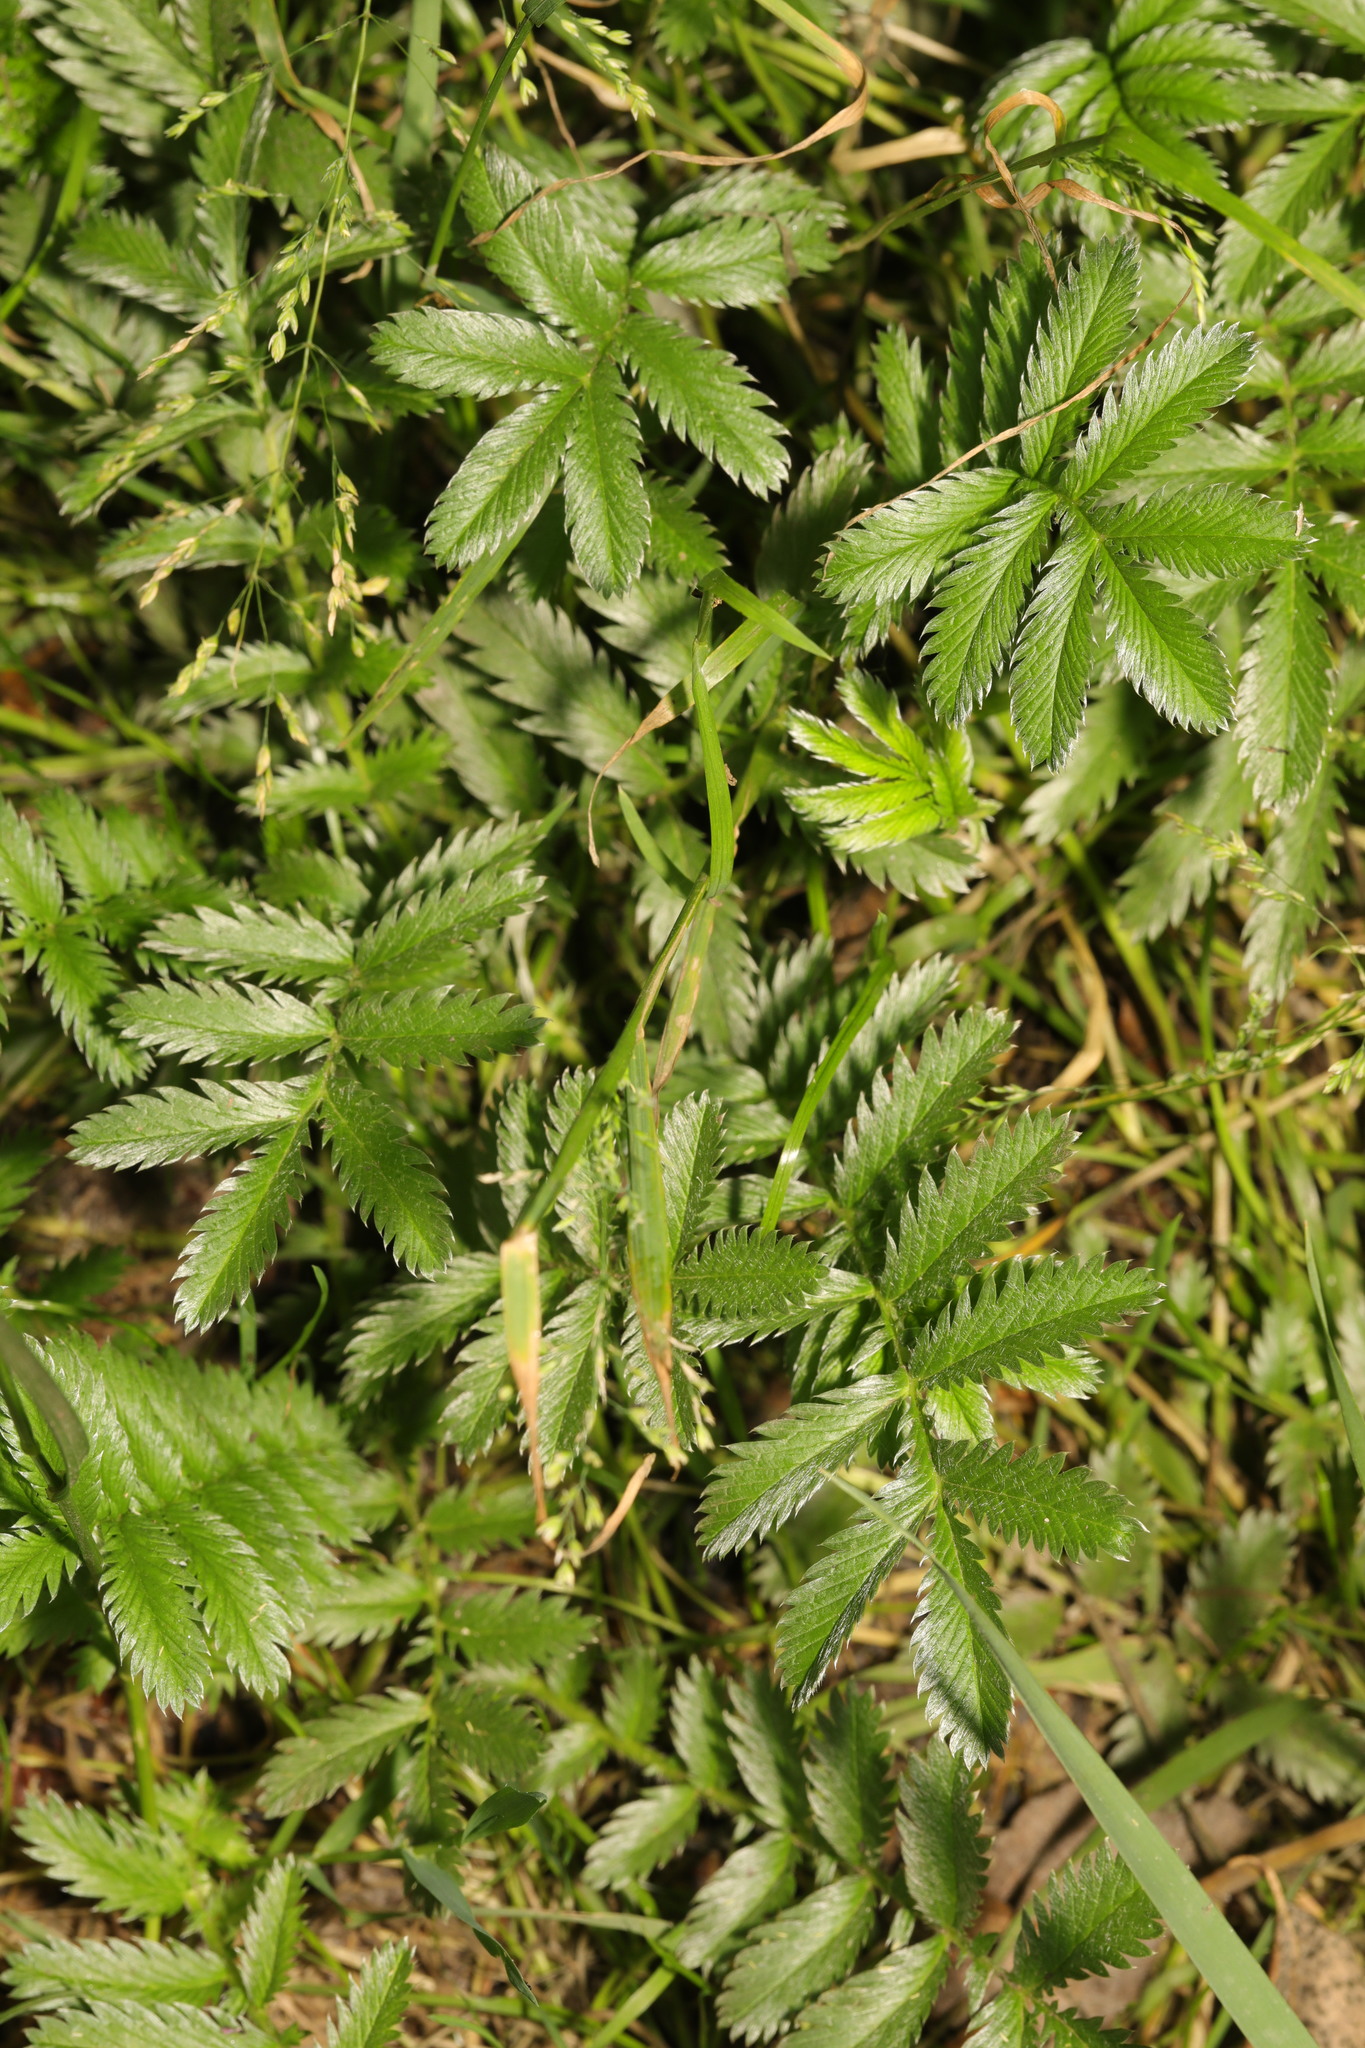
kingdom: Plantae
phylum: Tracheophyta
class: Magnoliopsida
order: Rosales
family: Rosaceae
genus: Argentina
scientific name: Argentina anserina
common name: Common silverweed
